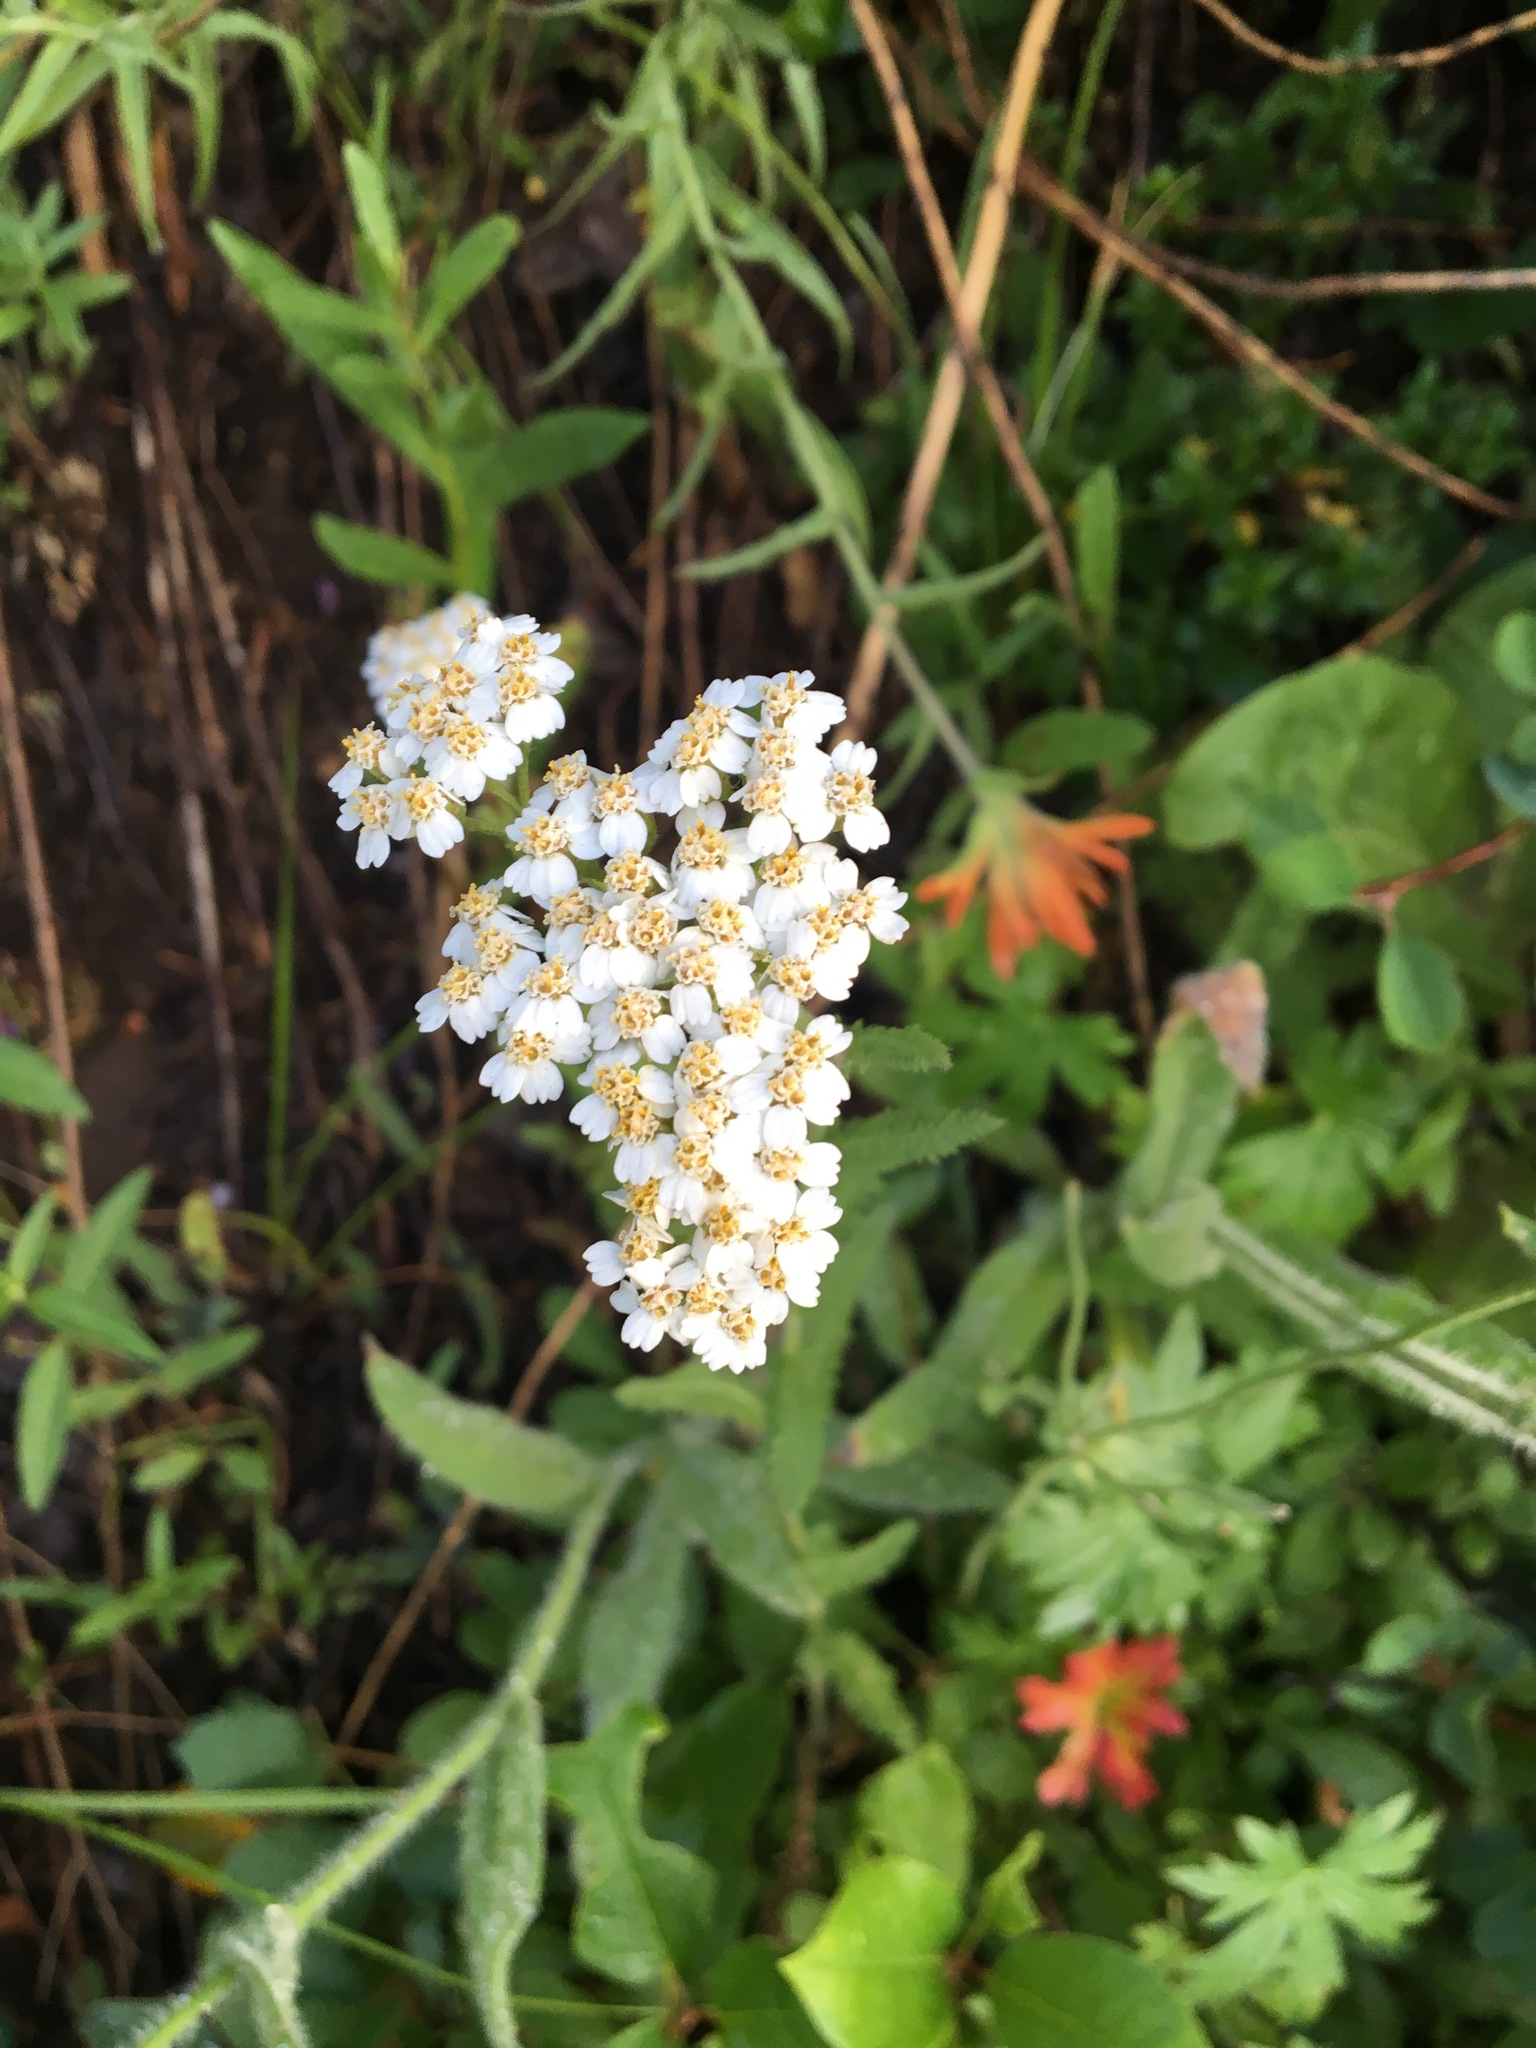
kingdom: Plantae
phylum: Tracheophyta
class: Magnoliopsida
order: Asterales
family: Asteraceae
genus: Achillea
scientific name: Achillea millefolium
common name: Yarrow
